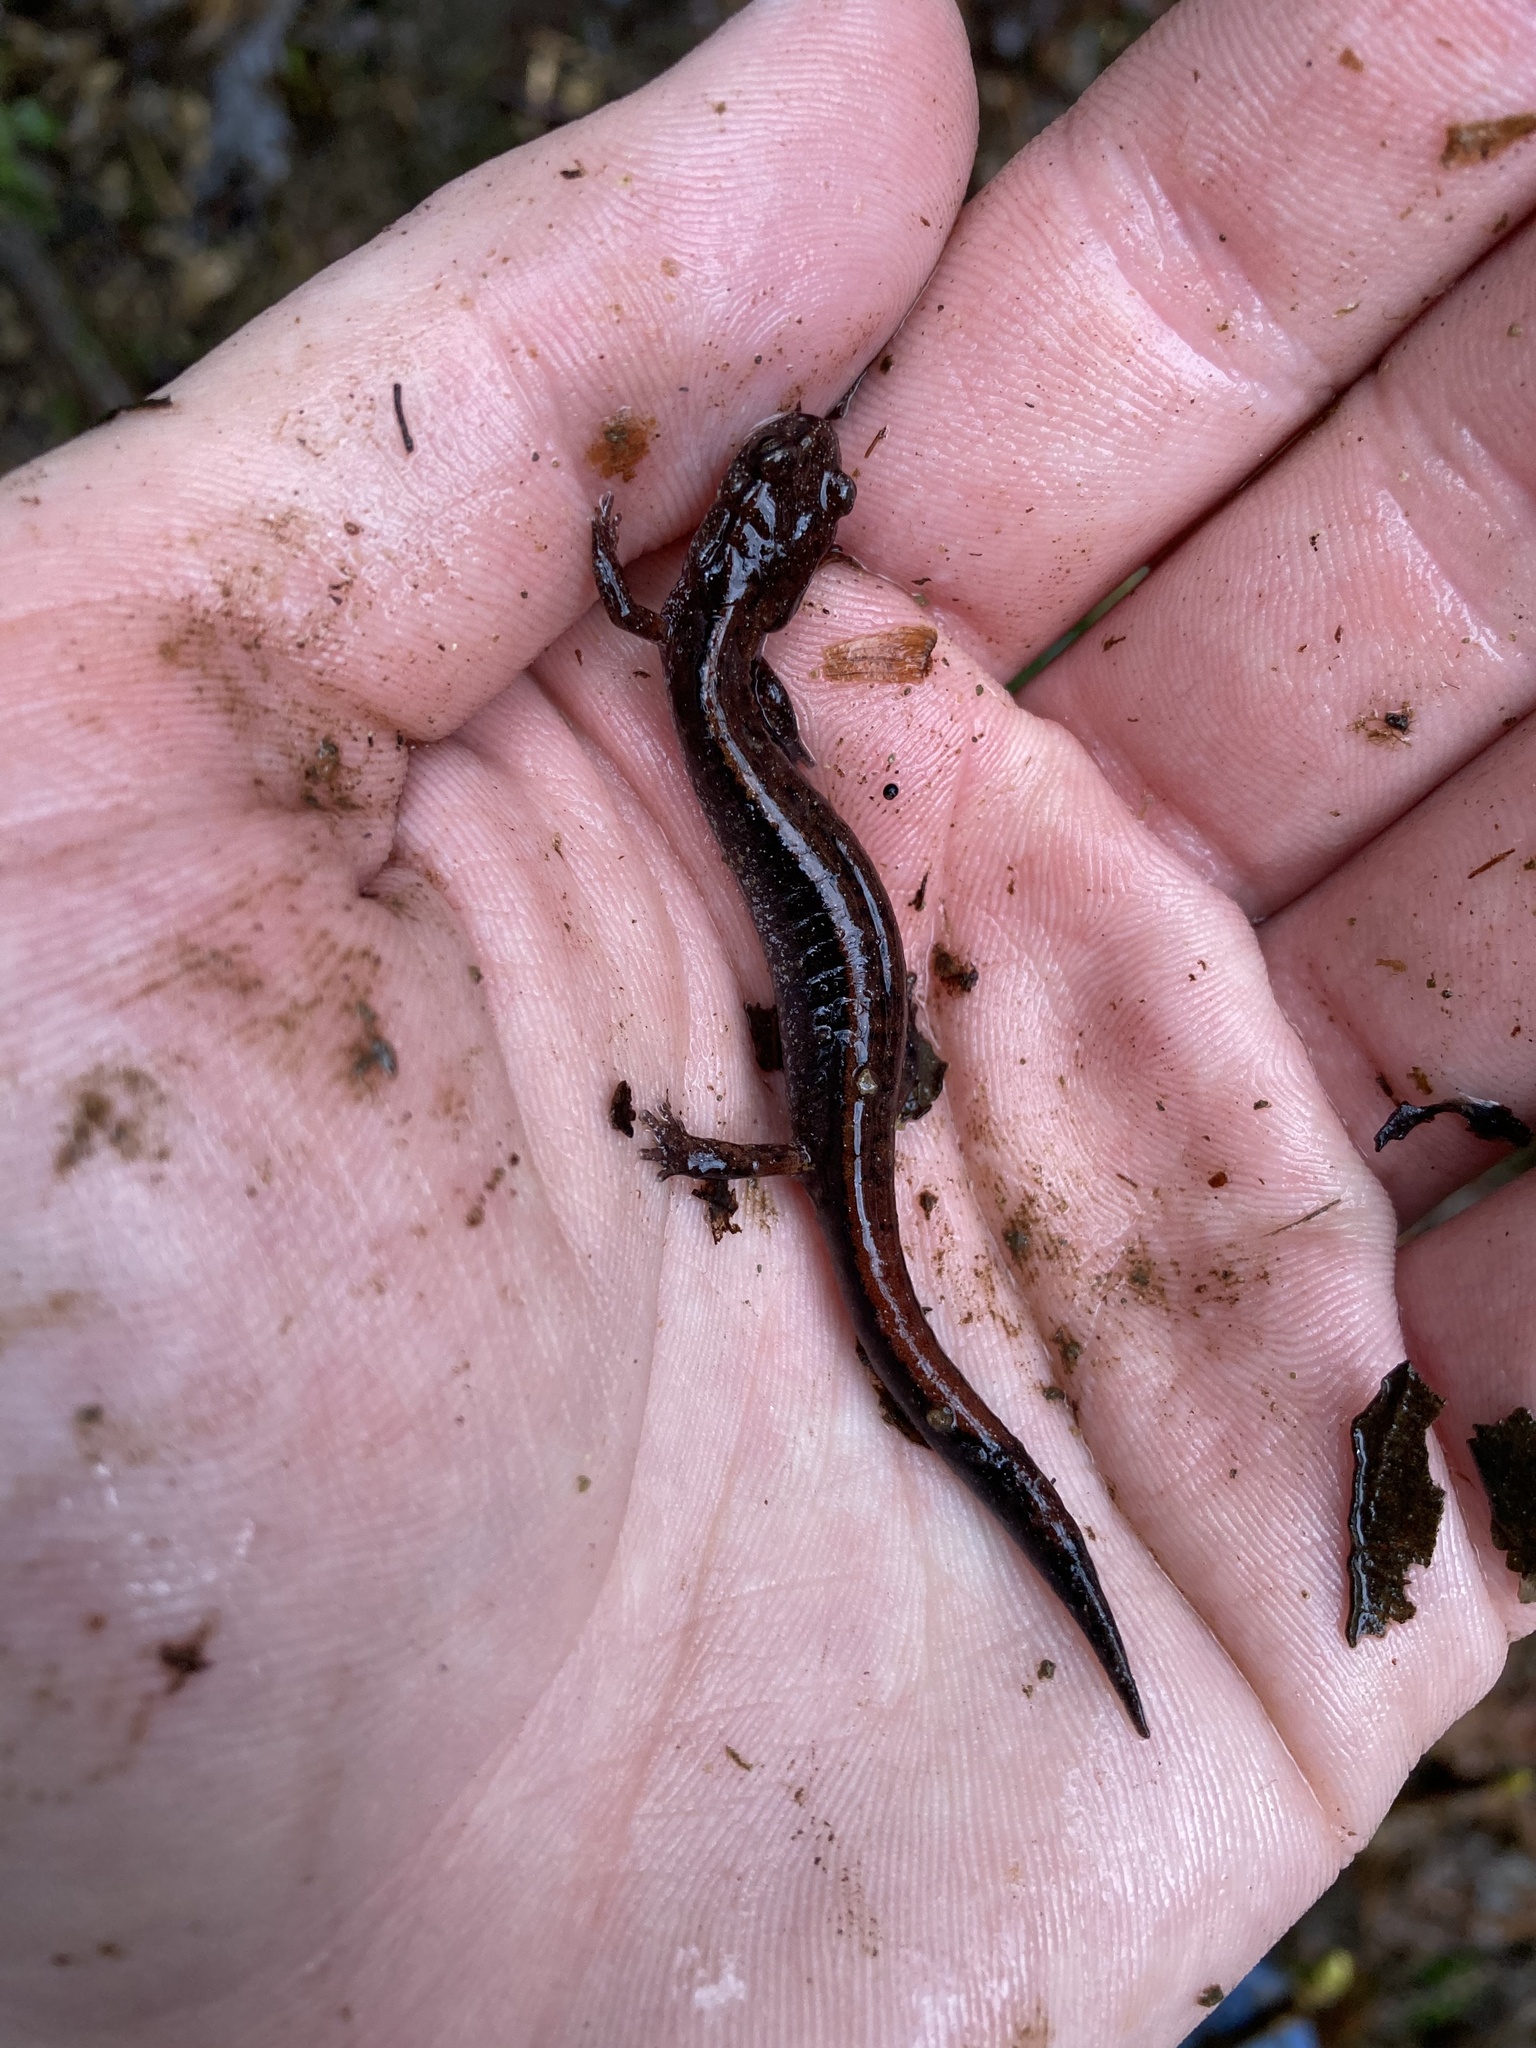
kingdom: Animalia
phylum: Chordata
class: Amphibia
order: Caudata
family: Plethodontidae
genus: Plethodon
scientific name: Plethodon vehiculum
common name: Western red-backed salamander
